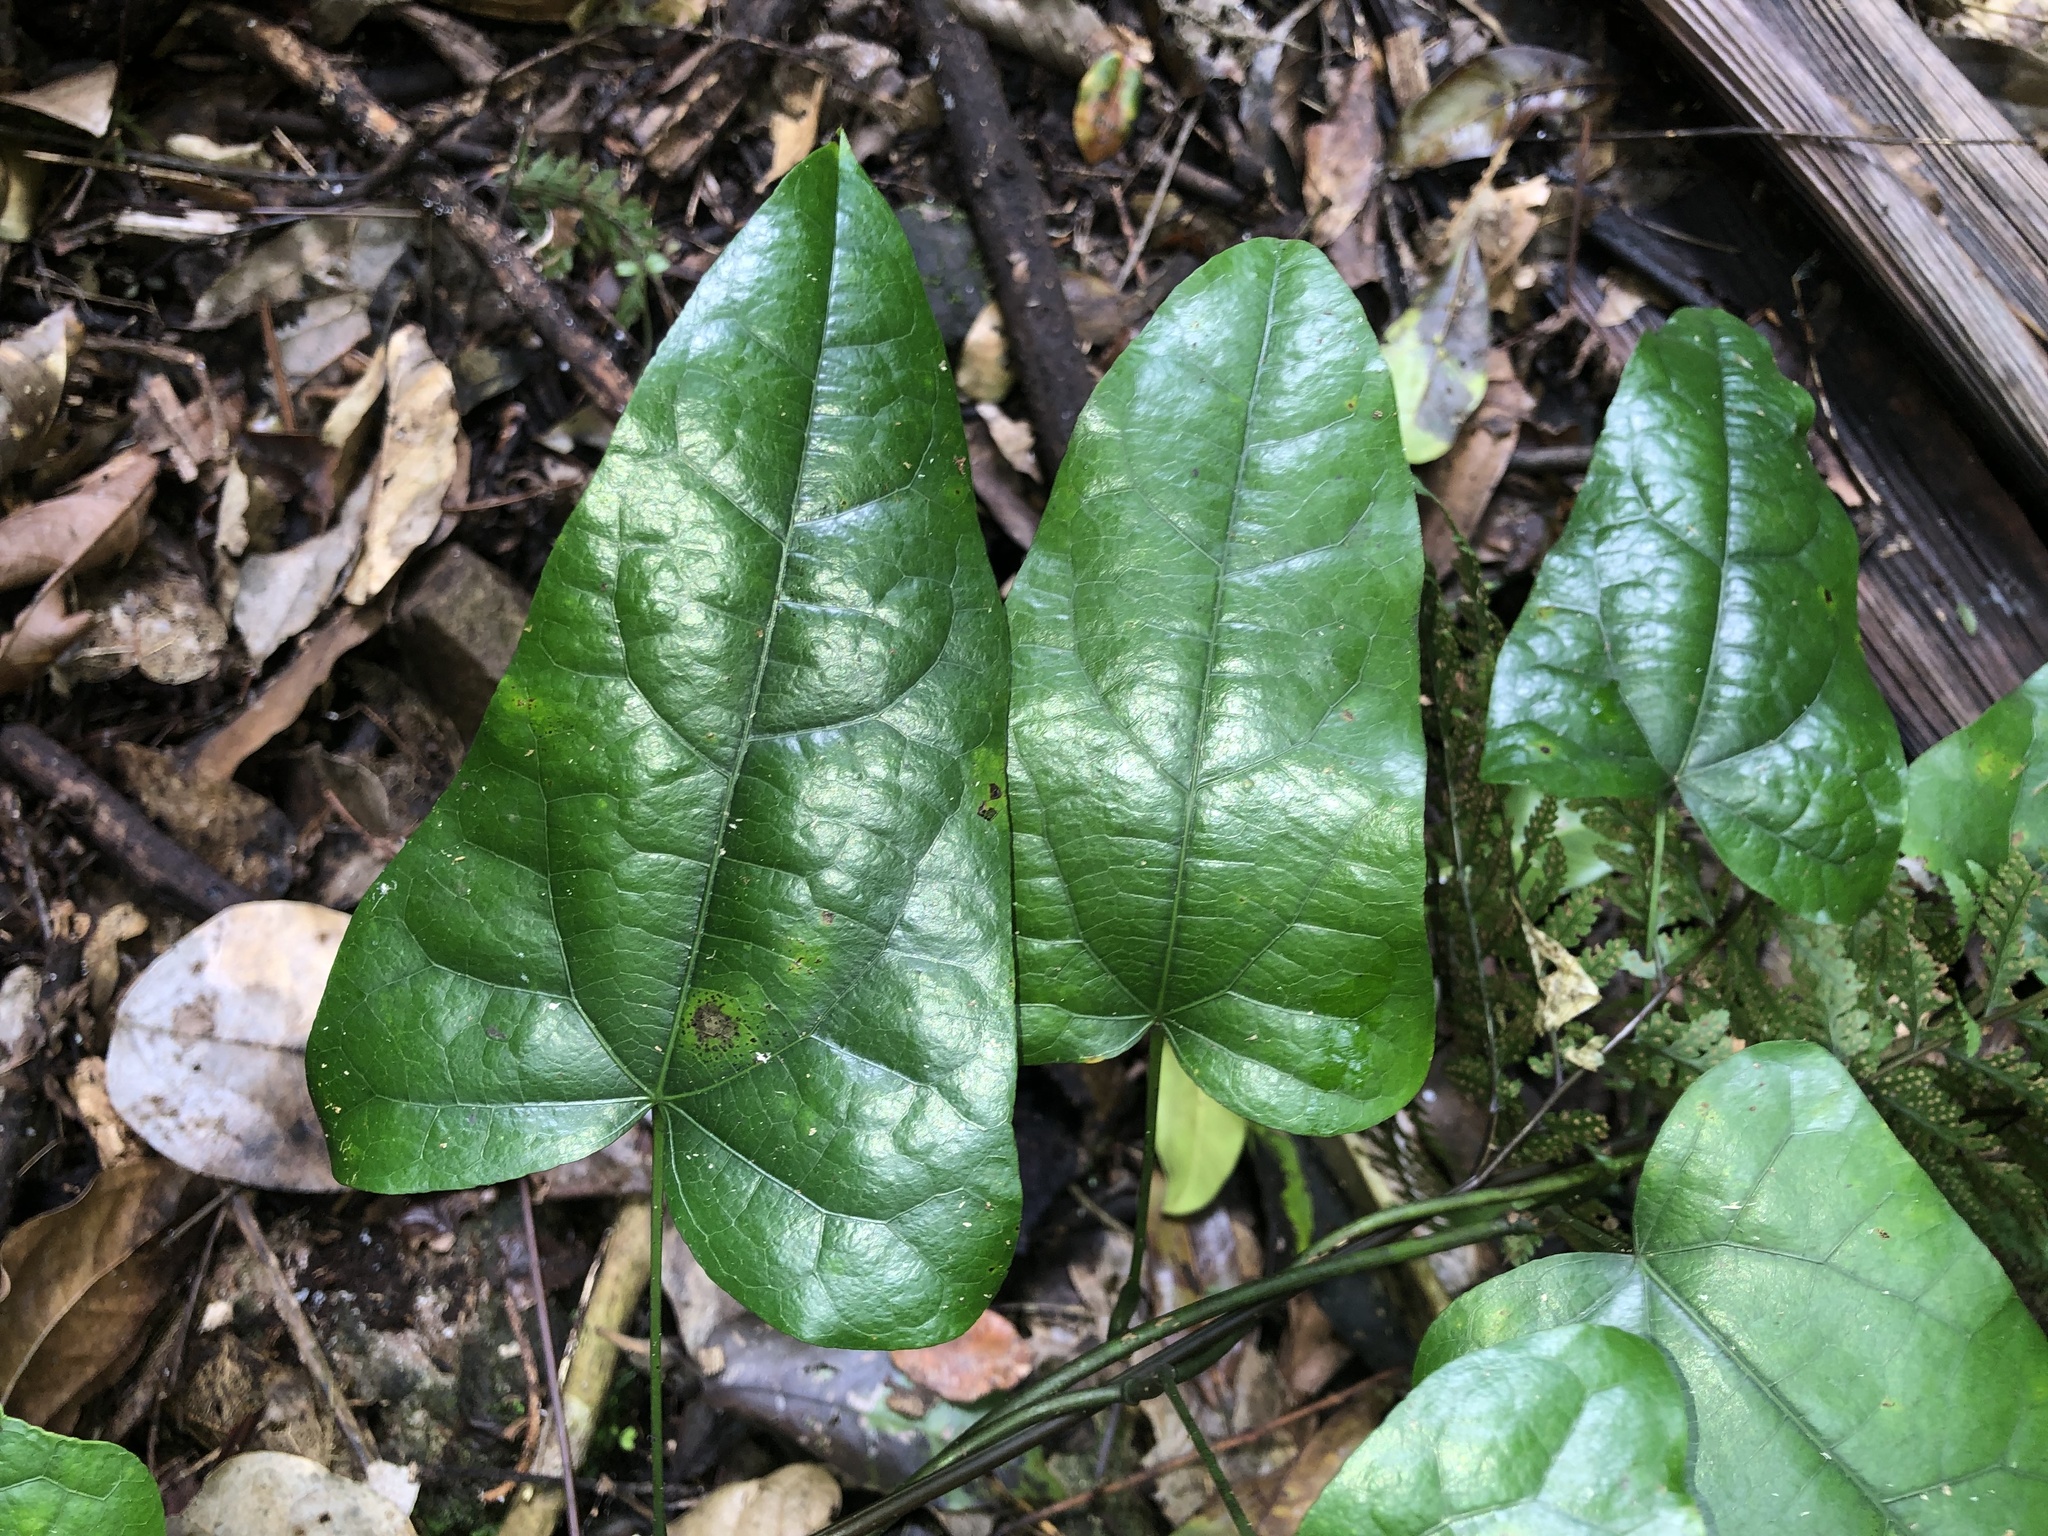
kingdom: Plantae
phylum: Tracheophyta
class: Magnoliopsida
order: Ranunculales
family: Menispermaceae
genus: Tinospora
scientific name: Tinospora tinosporoides
